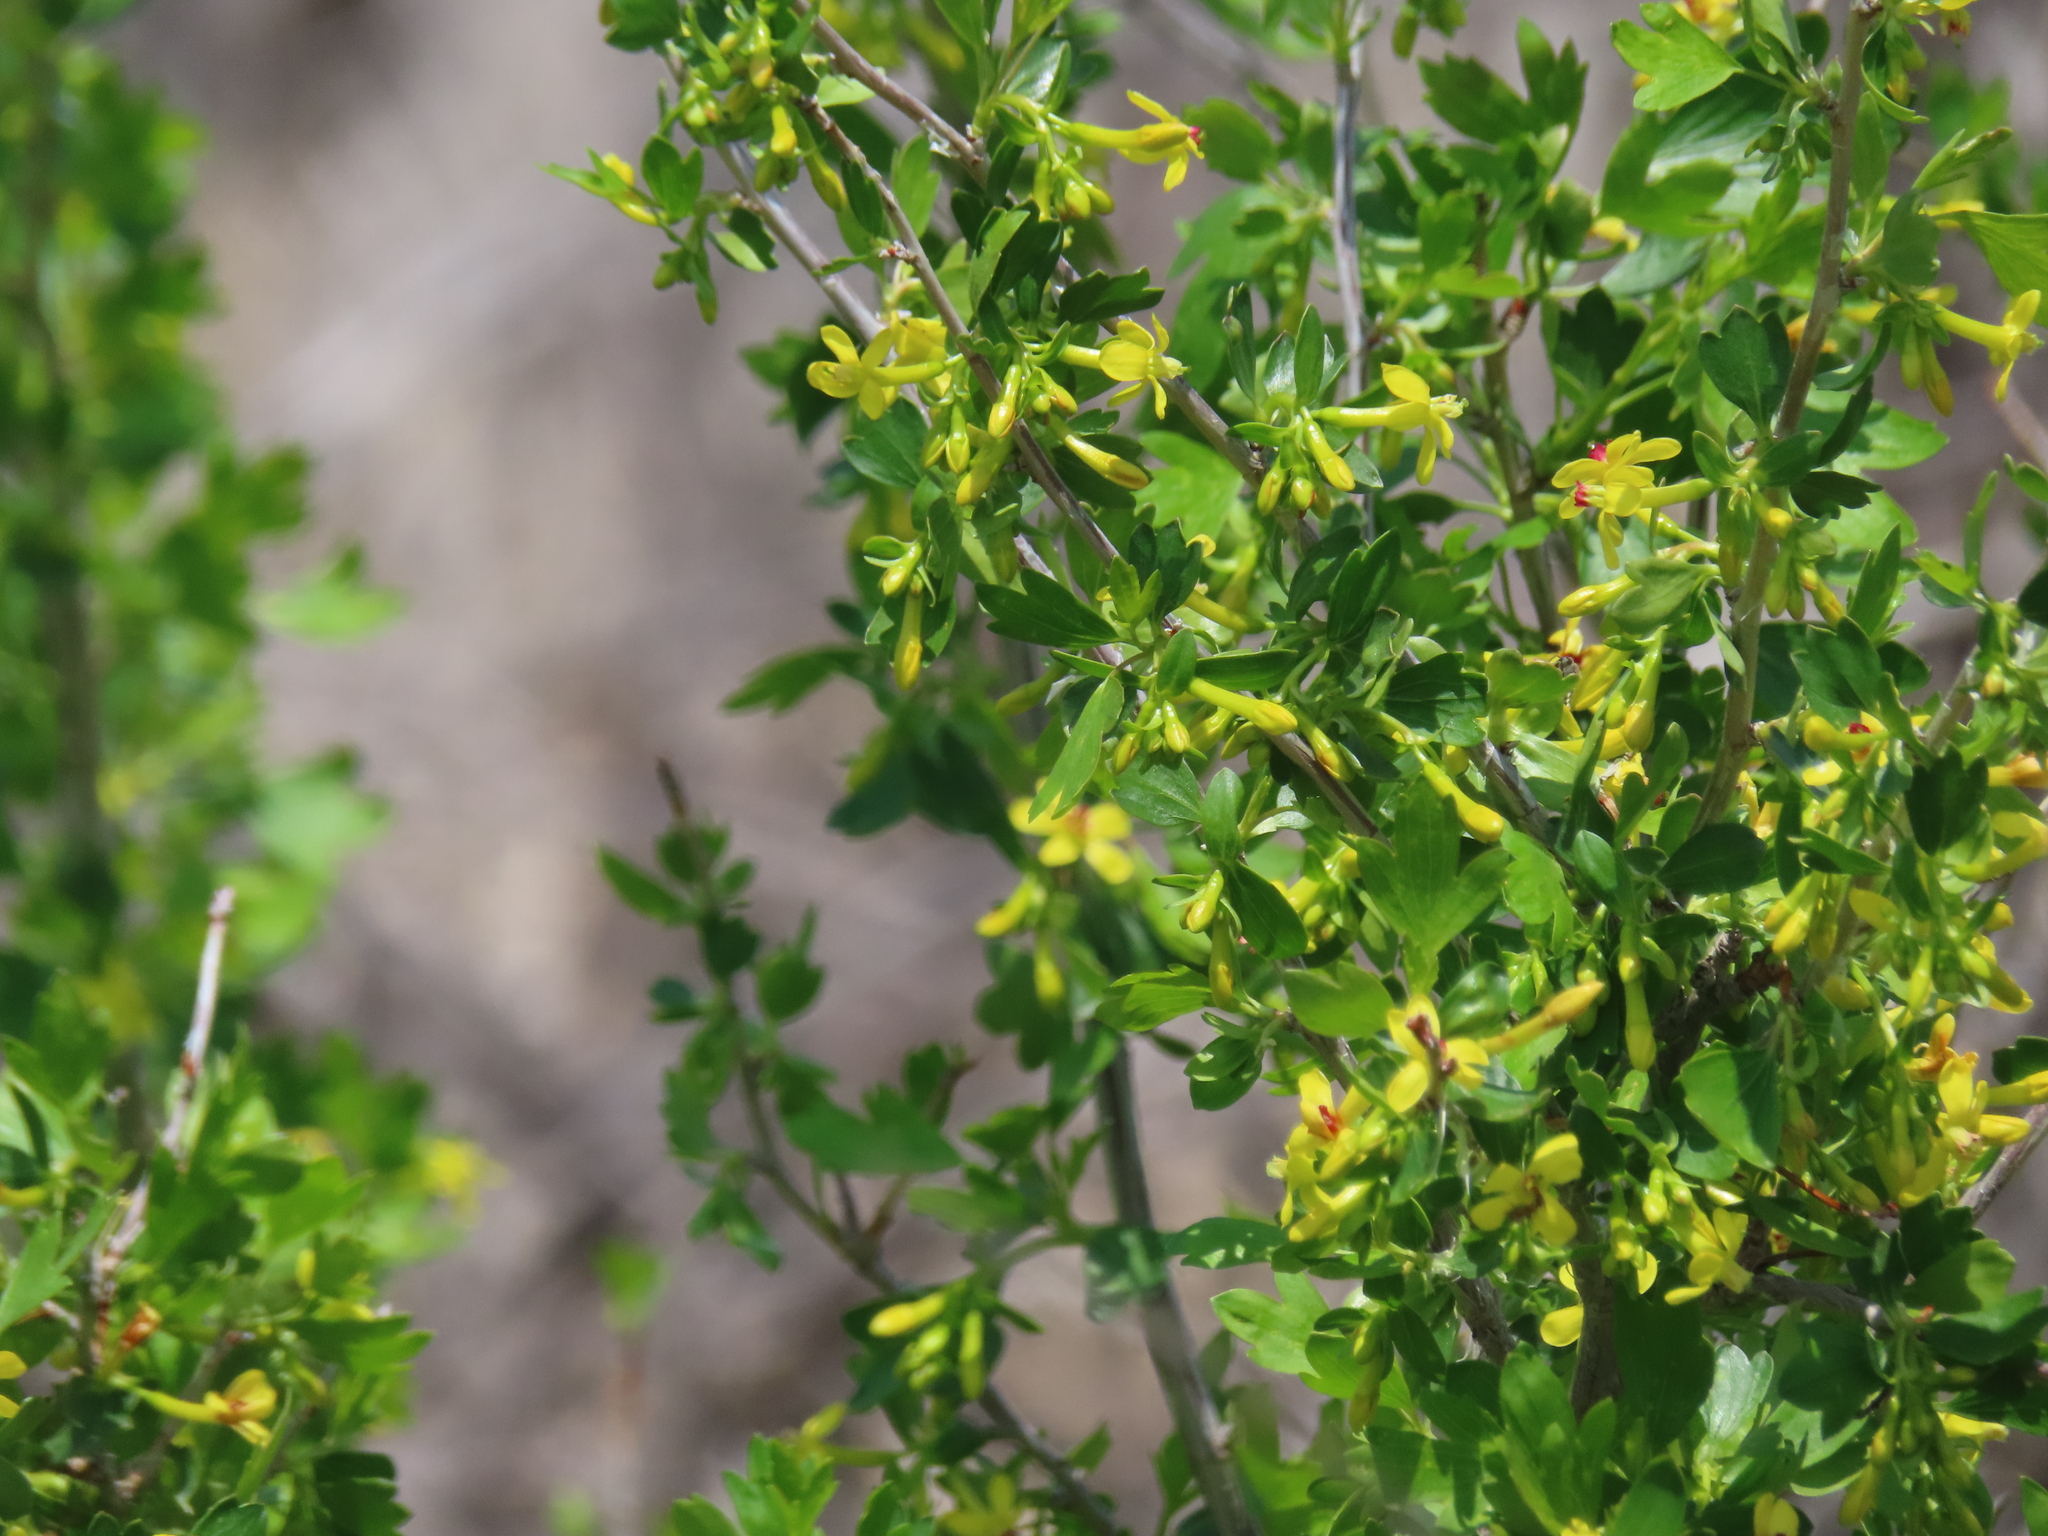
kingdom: Plantae
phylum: Tracheophyta
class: Magnoliopsida
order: Saxifragales
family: Grossulariaceae
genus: Ribes
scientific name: Ribes aureum
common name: Golden currant
